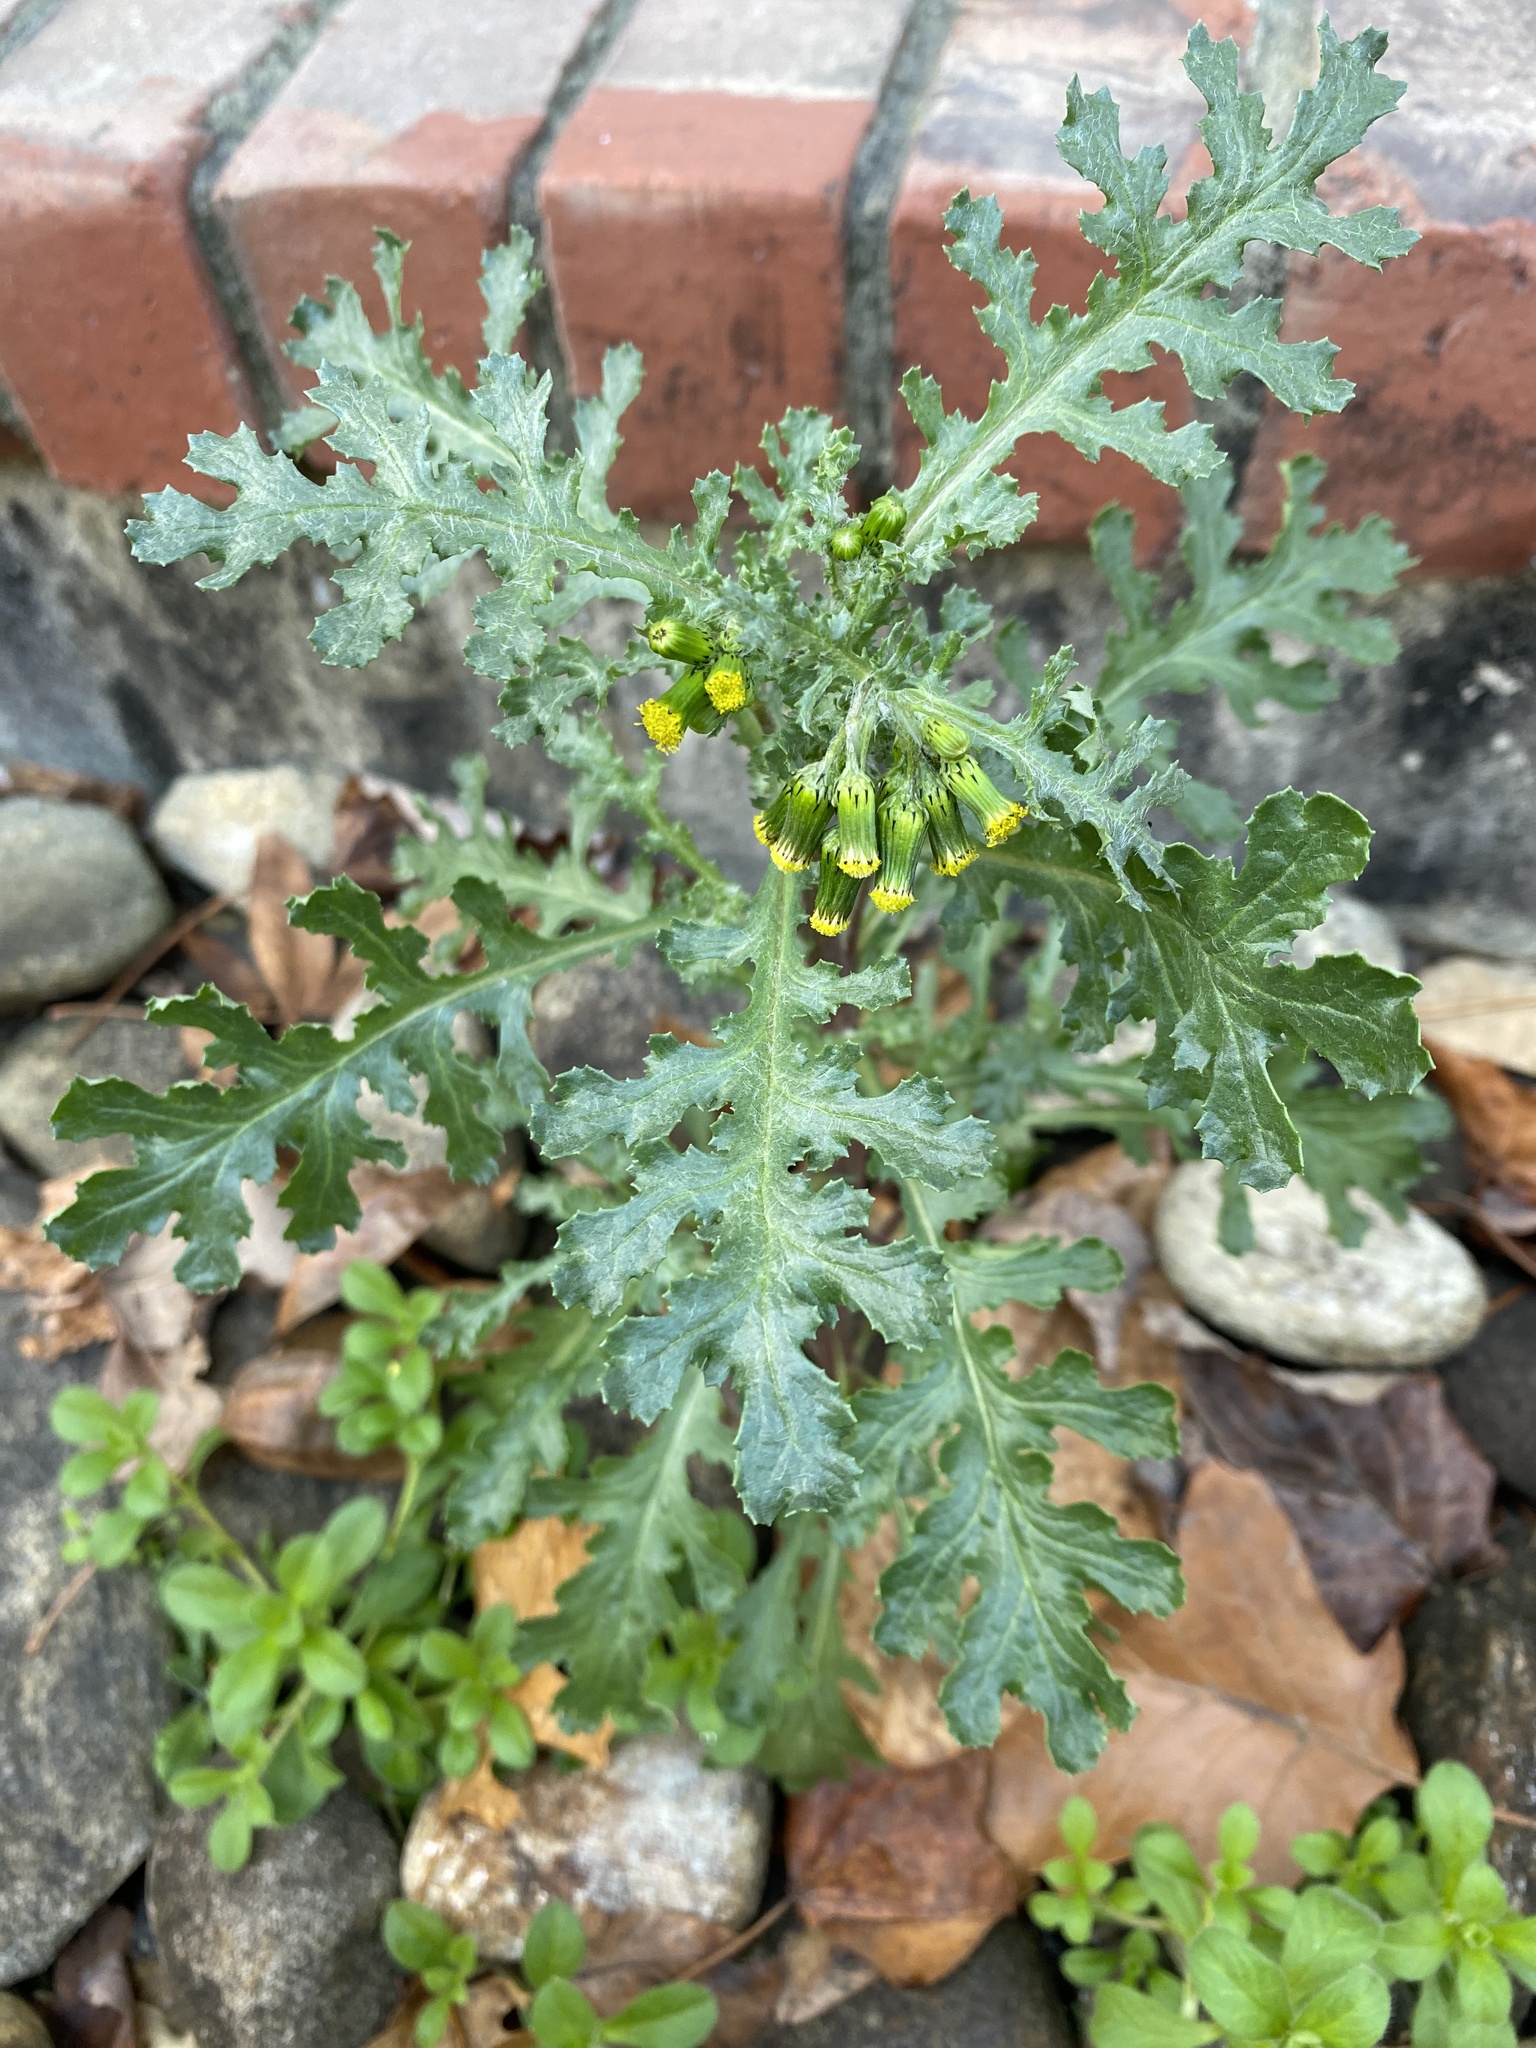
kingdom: Plantae
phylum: Tracheophyta
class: Magnoliopsida
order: Asterales
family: Asteraceae
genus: Senecio
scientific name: Senecio vulgaris
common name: Old-man-in-the-spring
